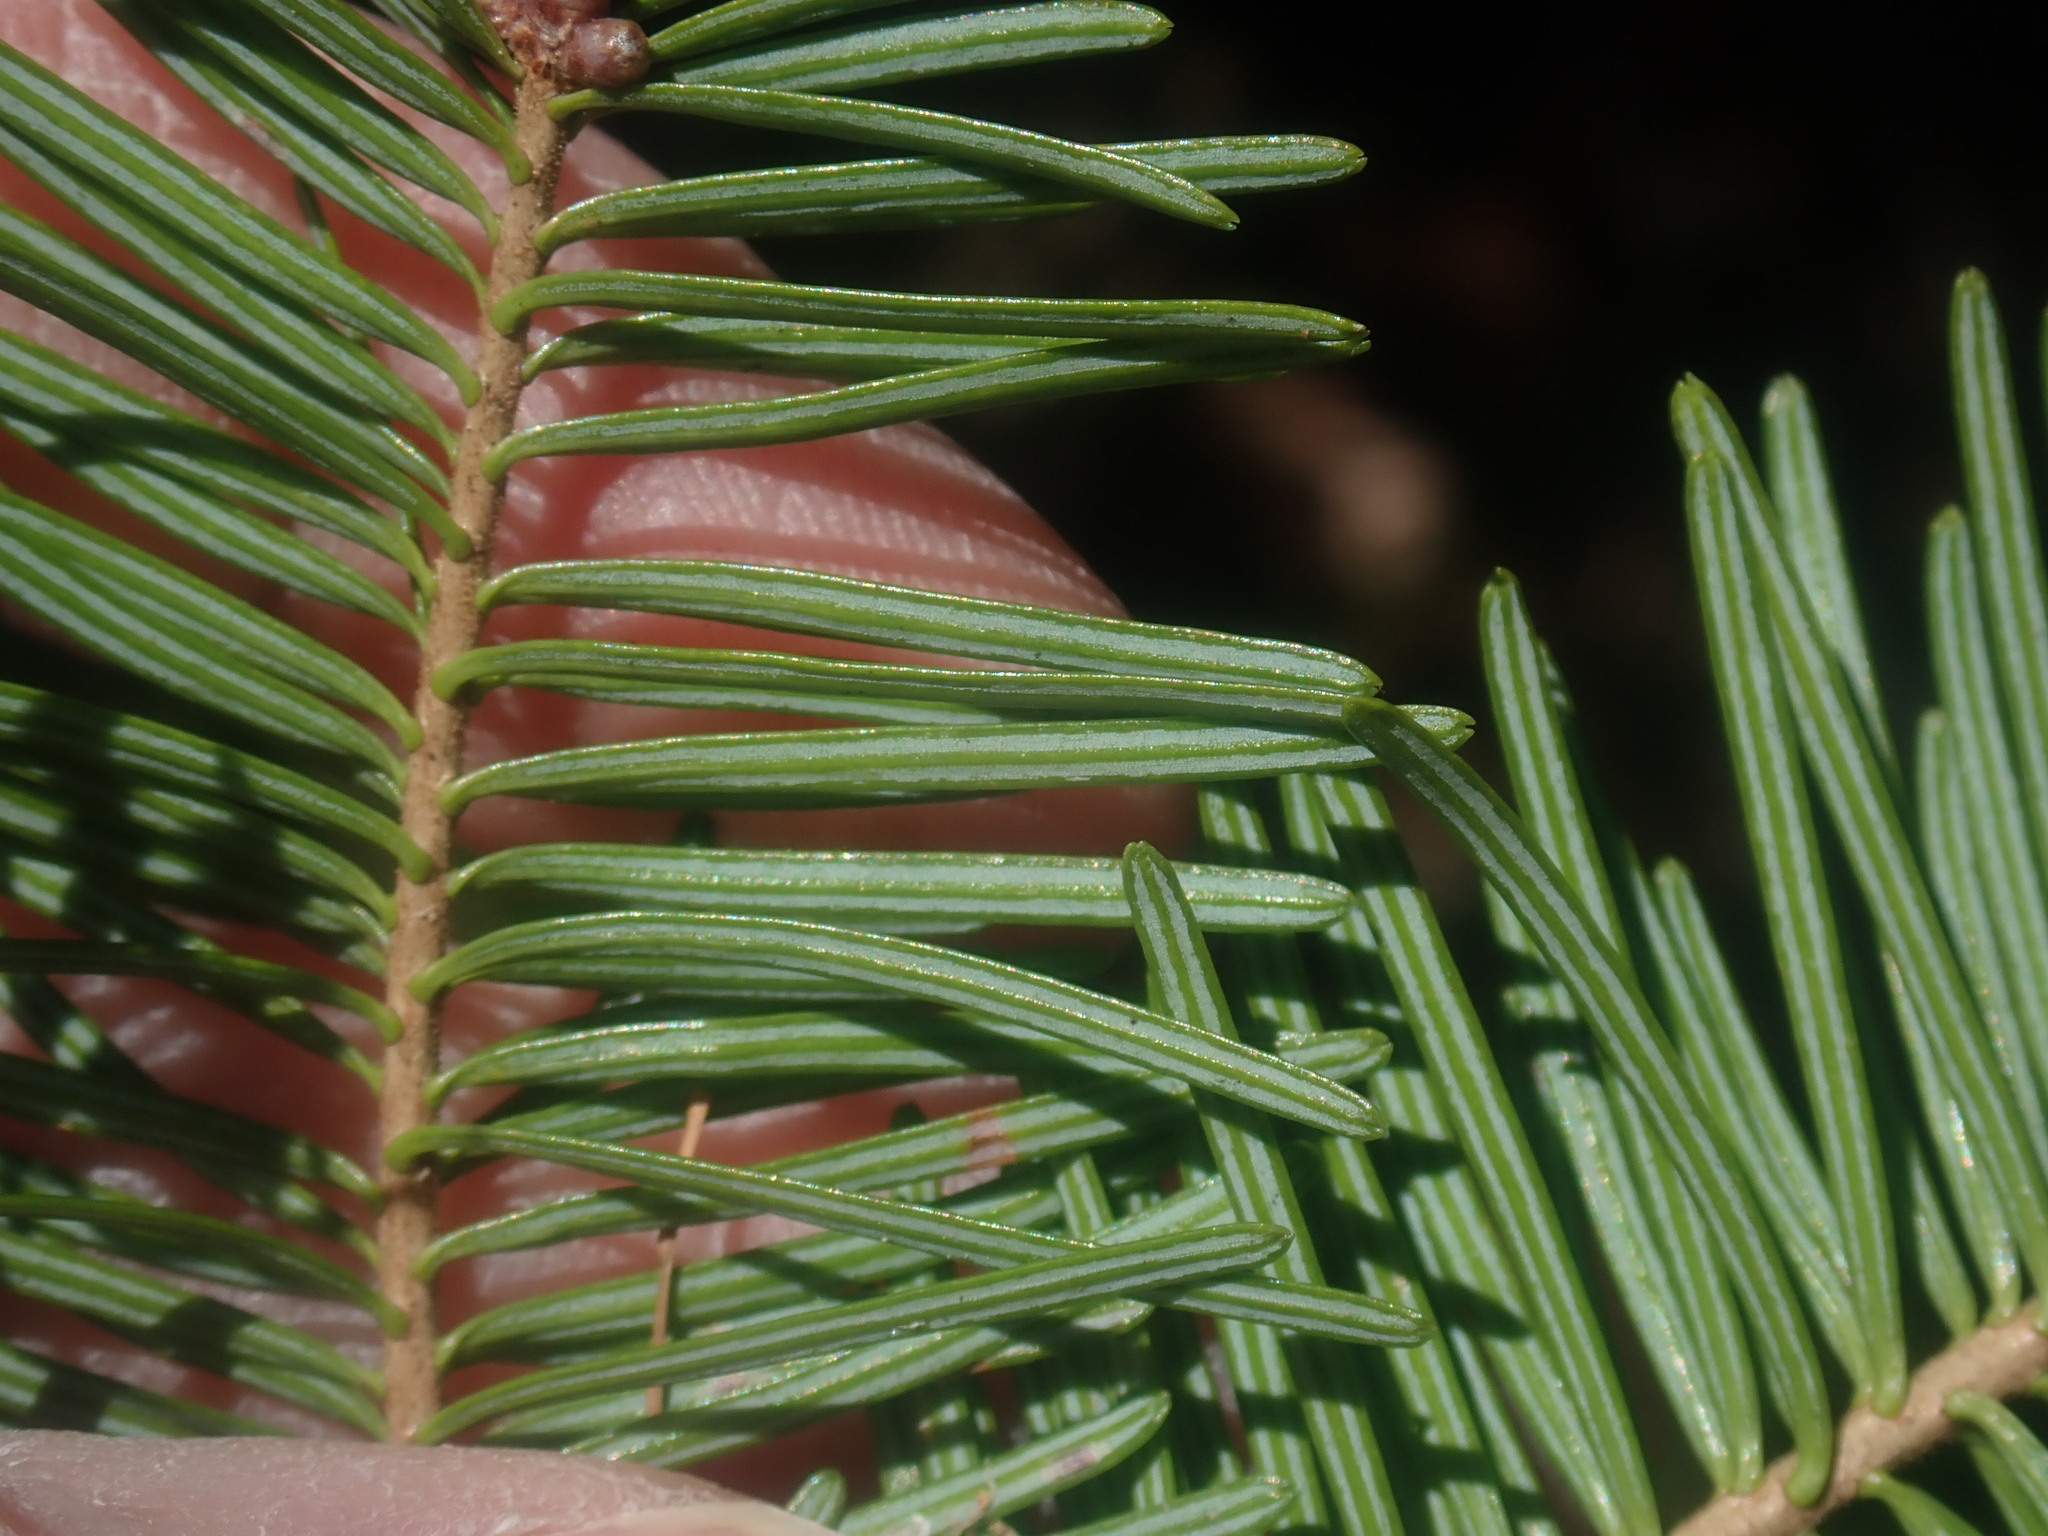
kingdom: Plantae
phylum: Tracheophyta
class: Pinopsida
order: Pinales
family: Pinaceae
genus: Abies
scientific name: Abies balsamea
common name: Balsam fir
